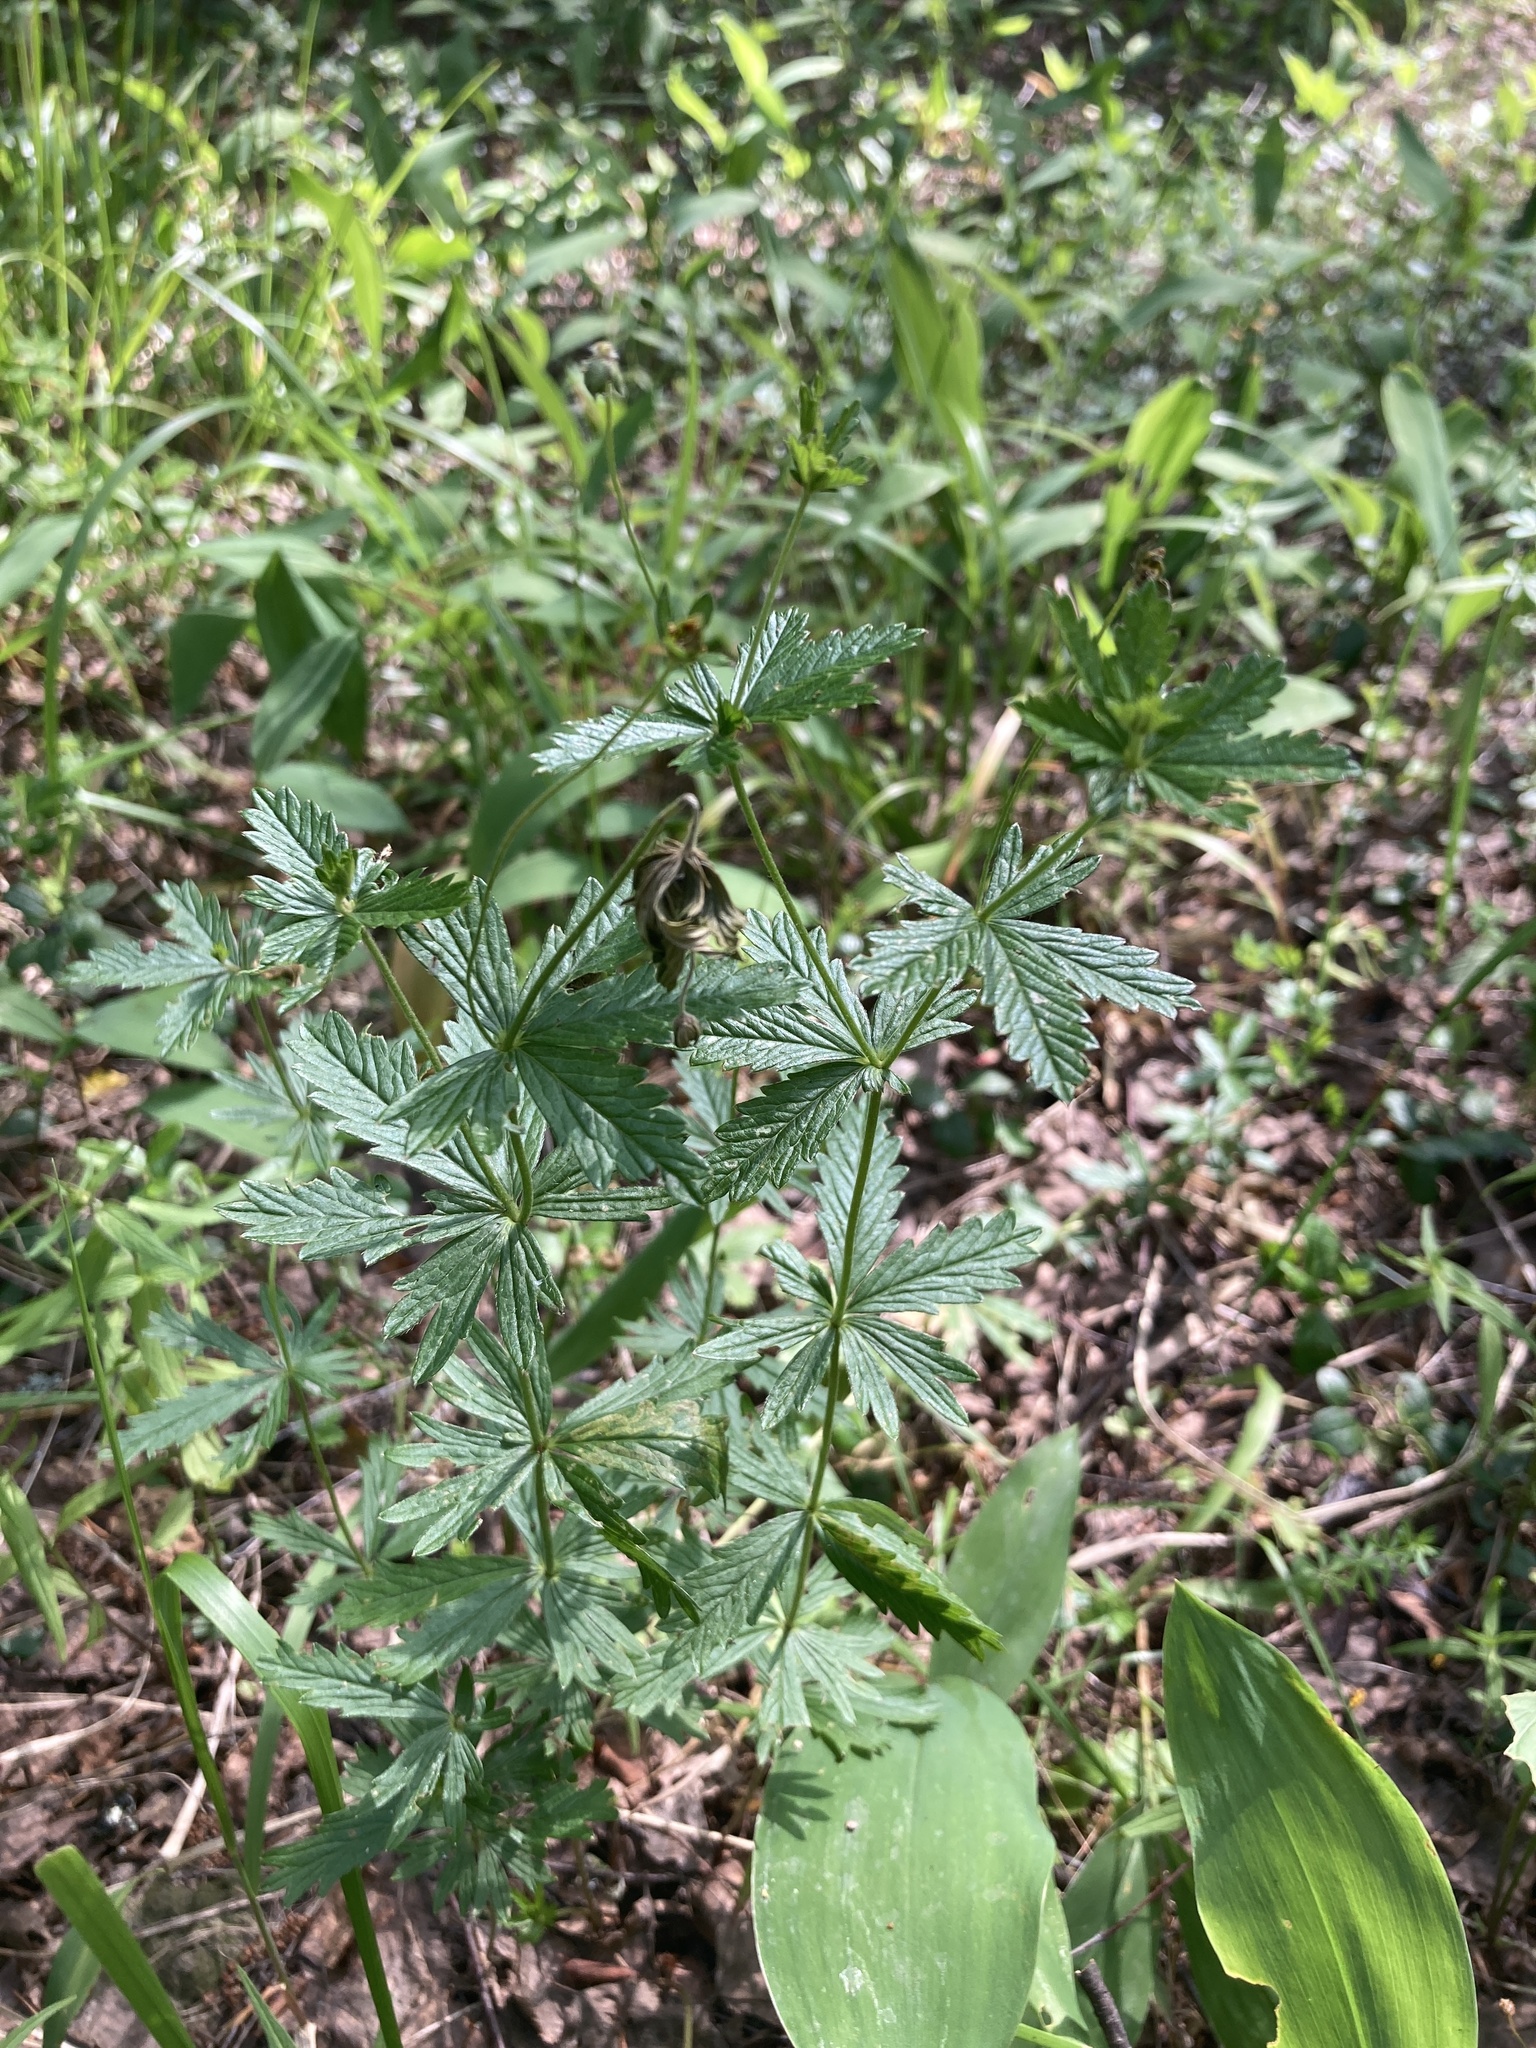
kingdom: Plantae
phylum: Tracheophyta
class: Magnoliopsida
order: Rosales
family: Rosaceae
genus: Potentilla
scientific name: Potentilla erecta
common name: Tormentil
